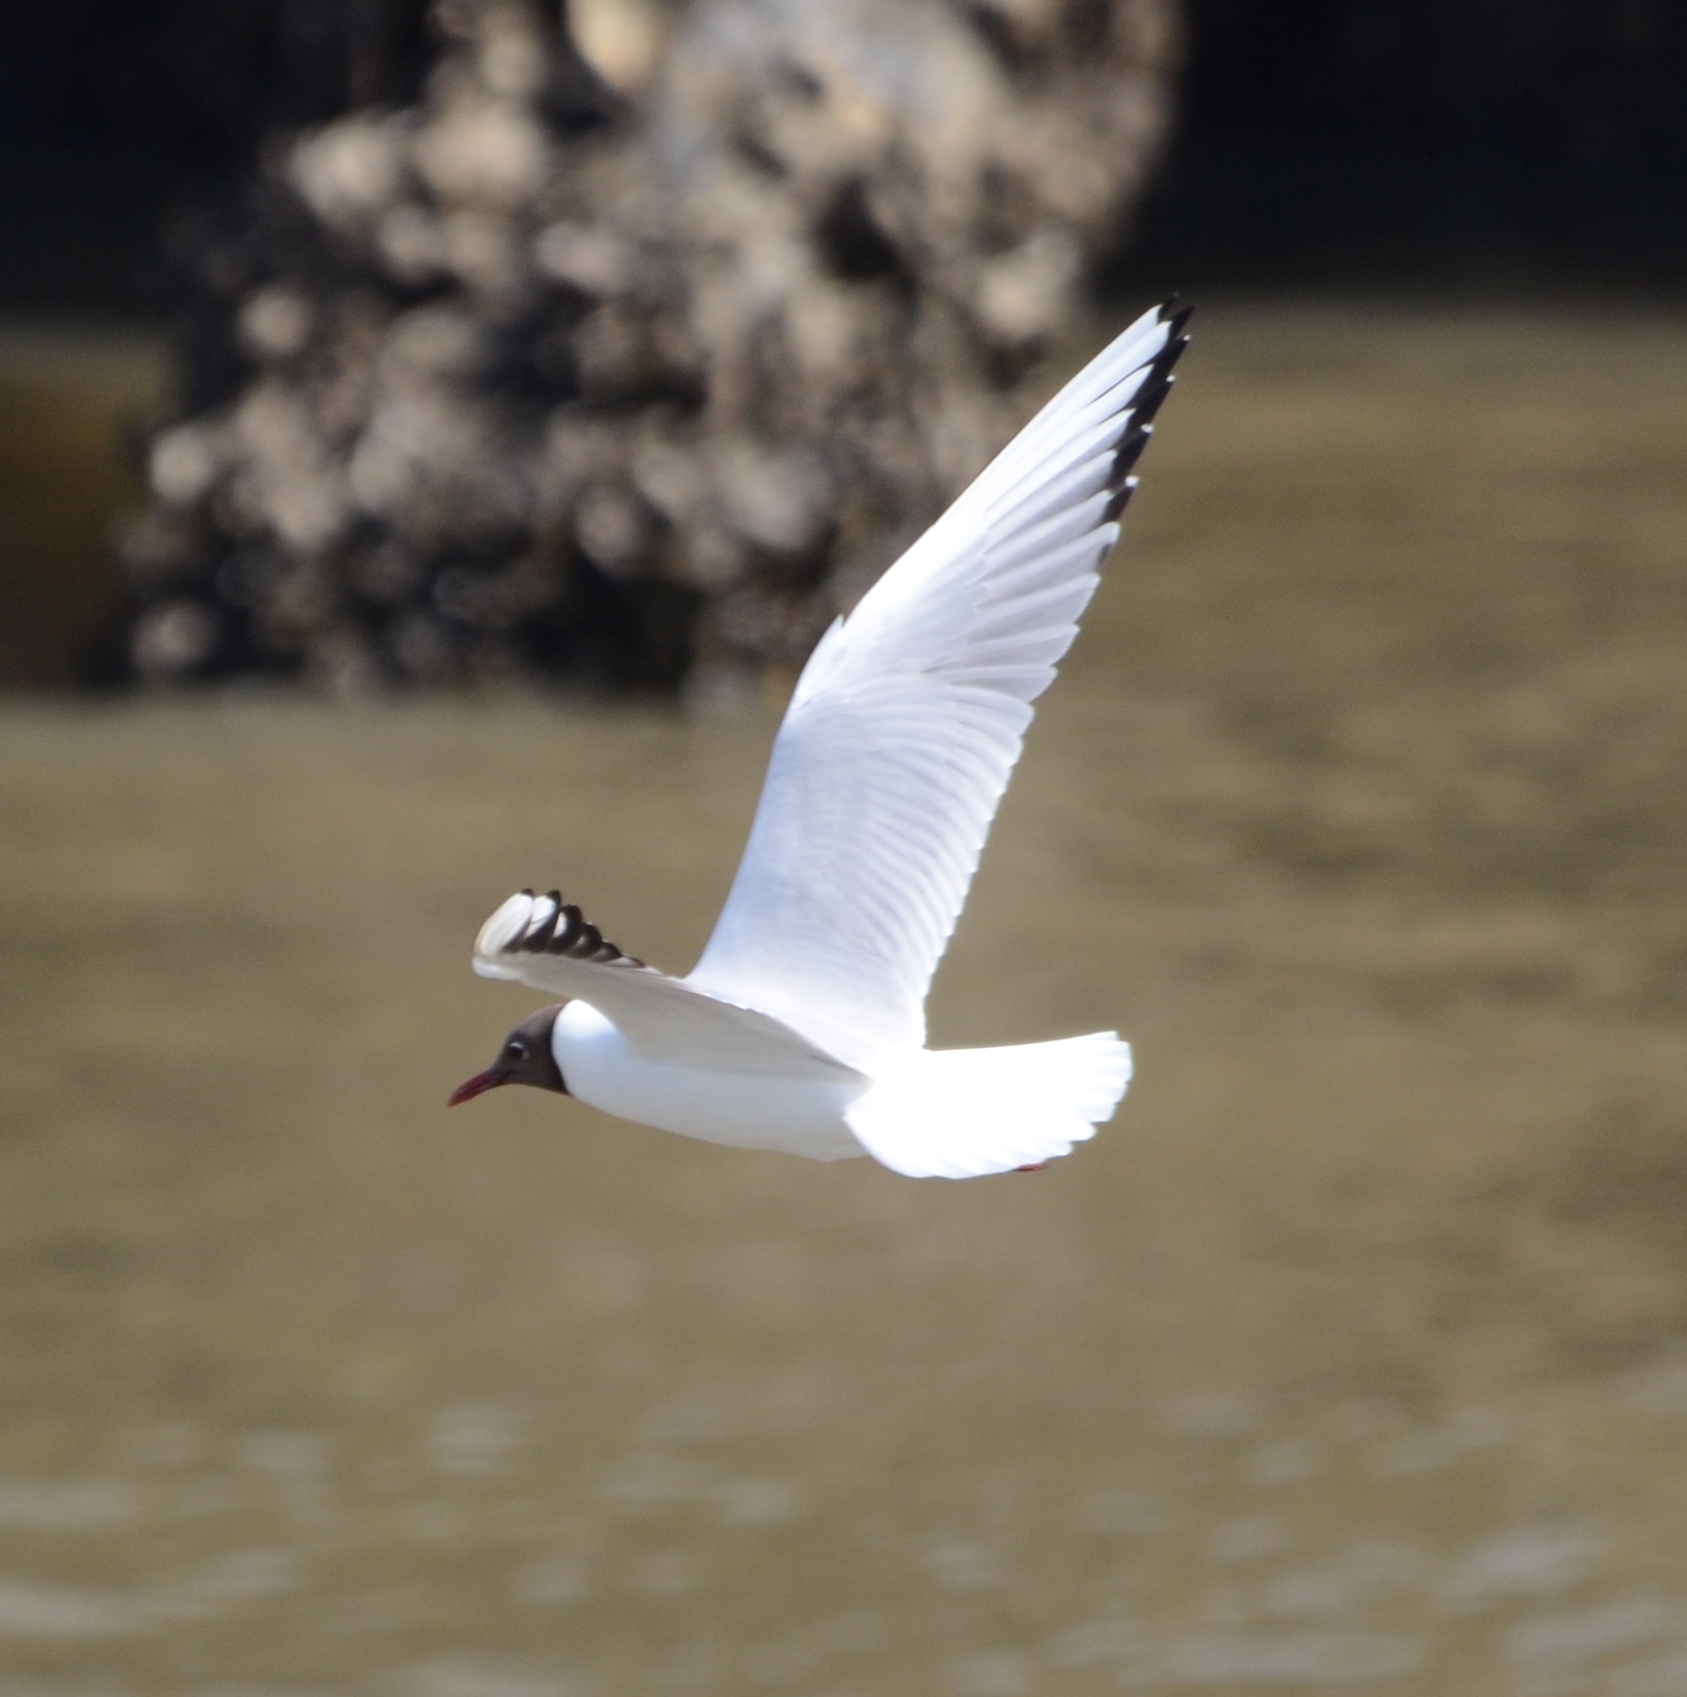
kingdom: Animalia
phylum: Chordata
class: Aves
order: Charadriiformes
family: Laridae
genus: Chroicocephalus
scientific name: Chroicocephalus ridibundus
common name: Black-headed gull
